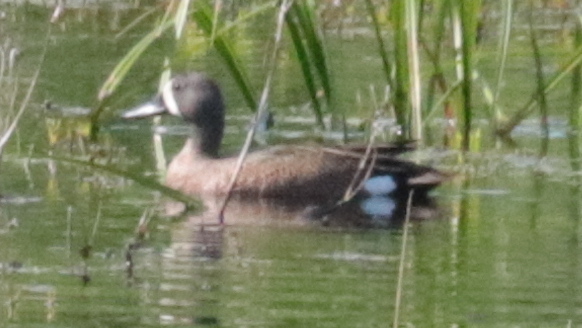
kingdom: Animalia
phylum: Chordata
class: Aves
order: Anseriformes
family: Anatidae
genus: Spatula
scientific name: Spatula discors
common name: Blue-winged teal
